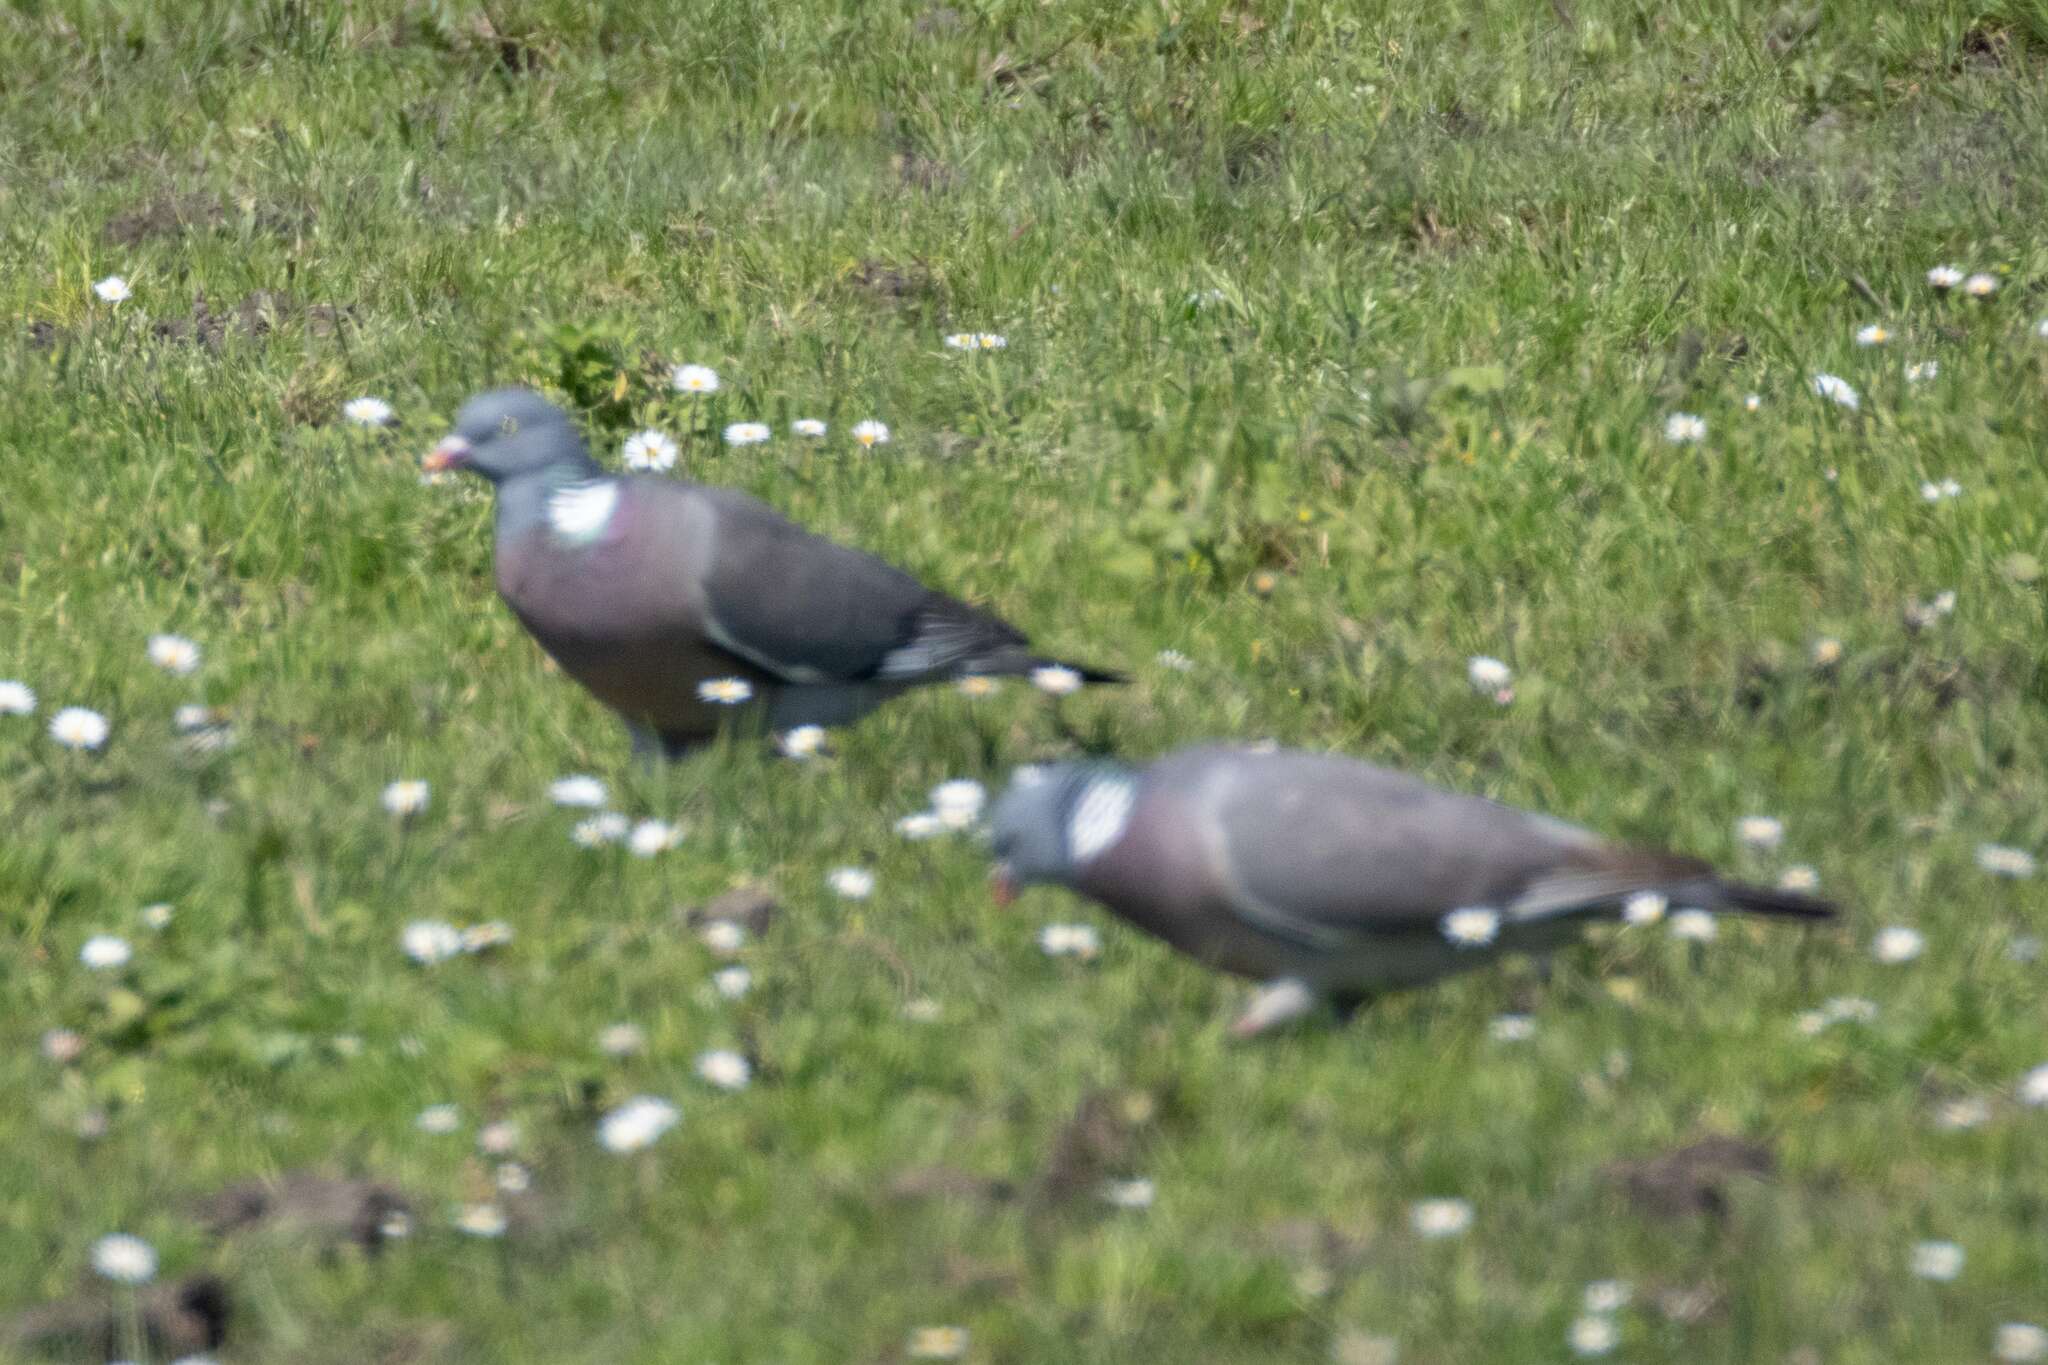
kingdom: Animalia
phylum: Chordata
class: Aves
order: Columbiformes
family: Columbidae
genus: Columba
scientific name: Columba palumbus
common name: Common wood pigeon
